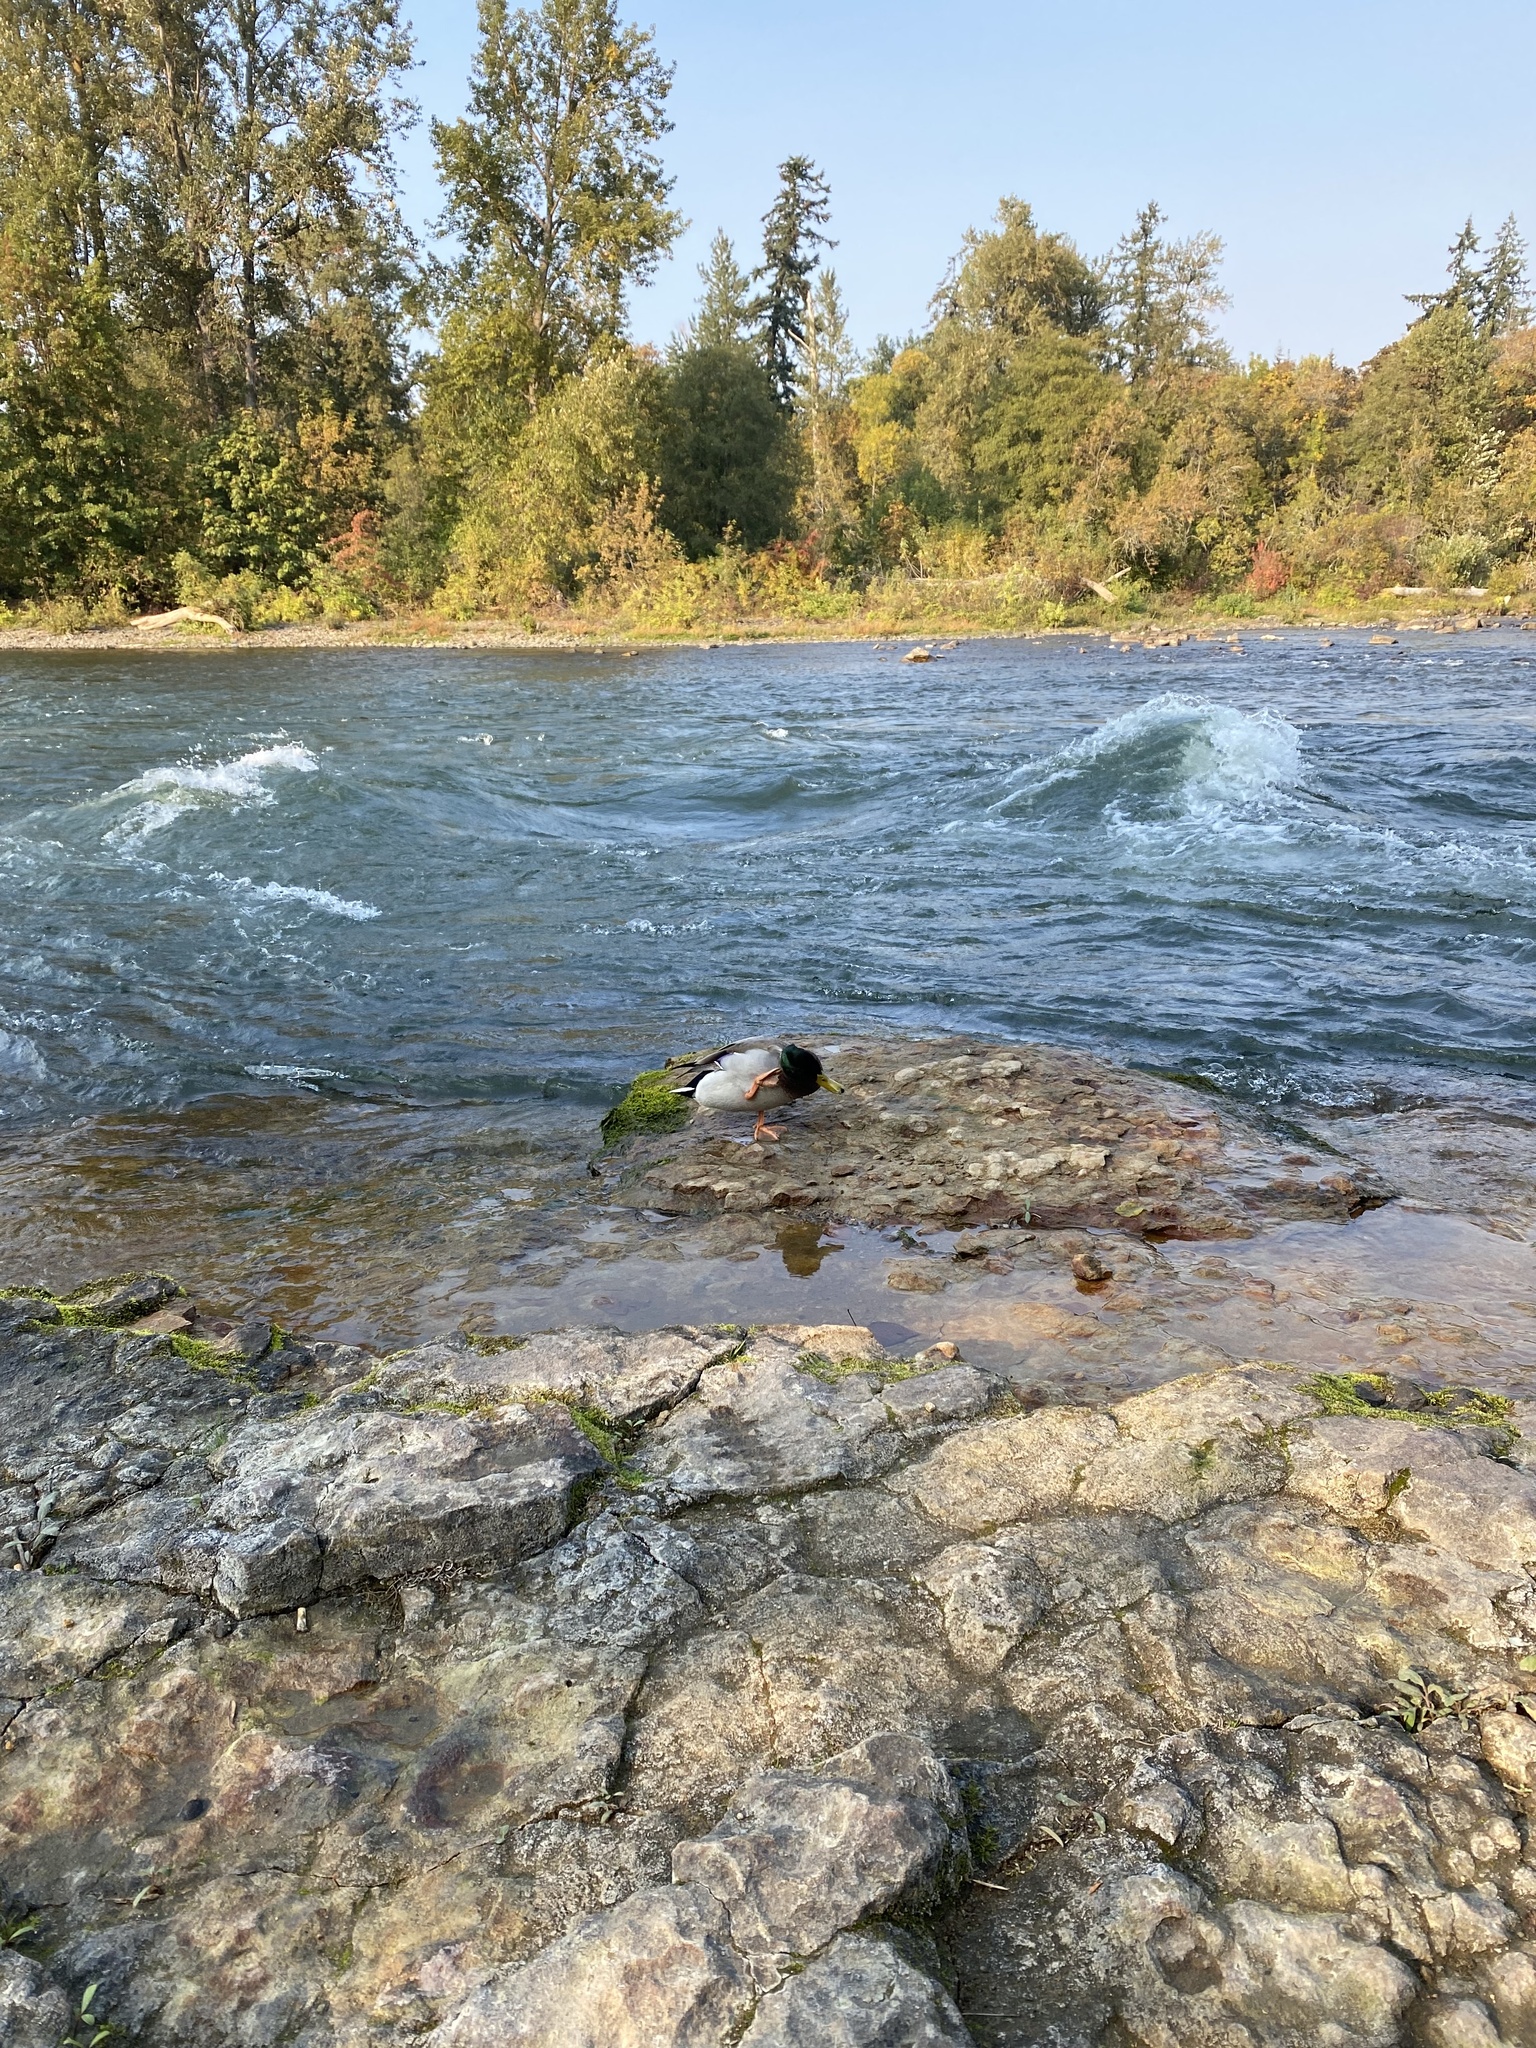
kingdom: Animalia
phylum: Chordata
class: Aves
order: Anseriformes
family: Anatidae
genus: Anas
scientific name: Anas platyrhynchos
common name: Mallard
